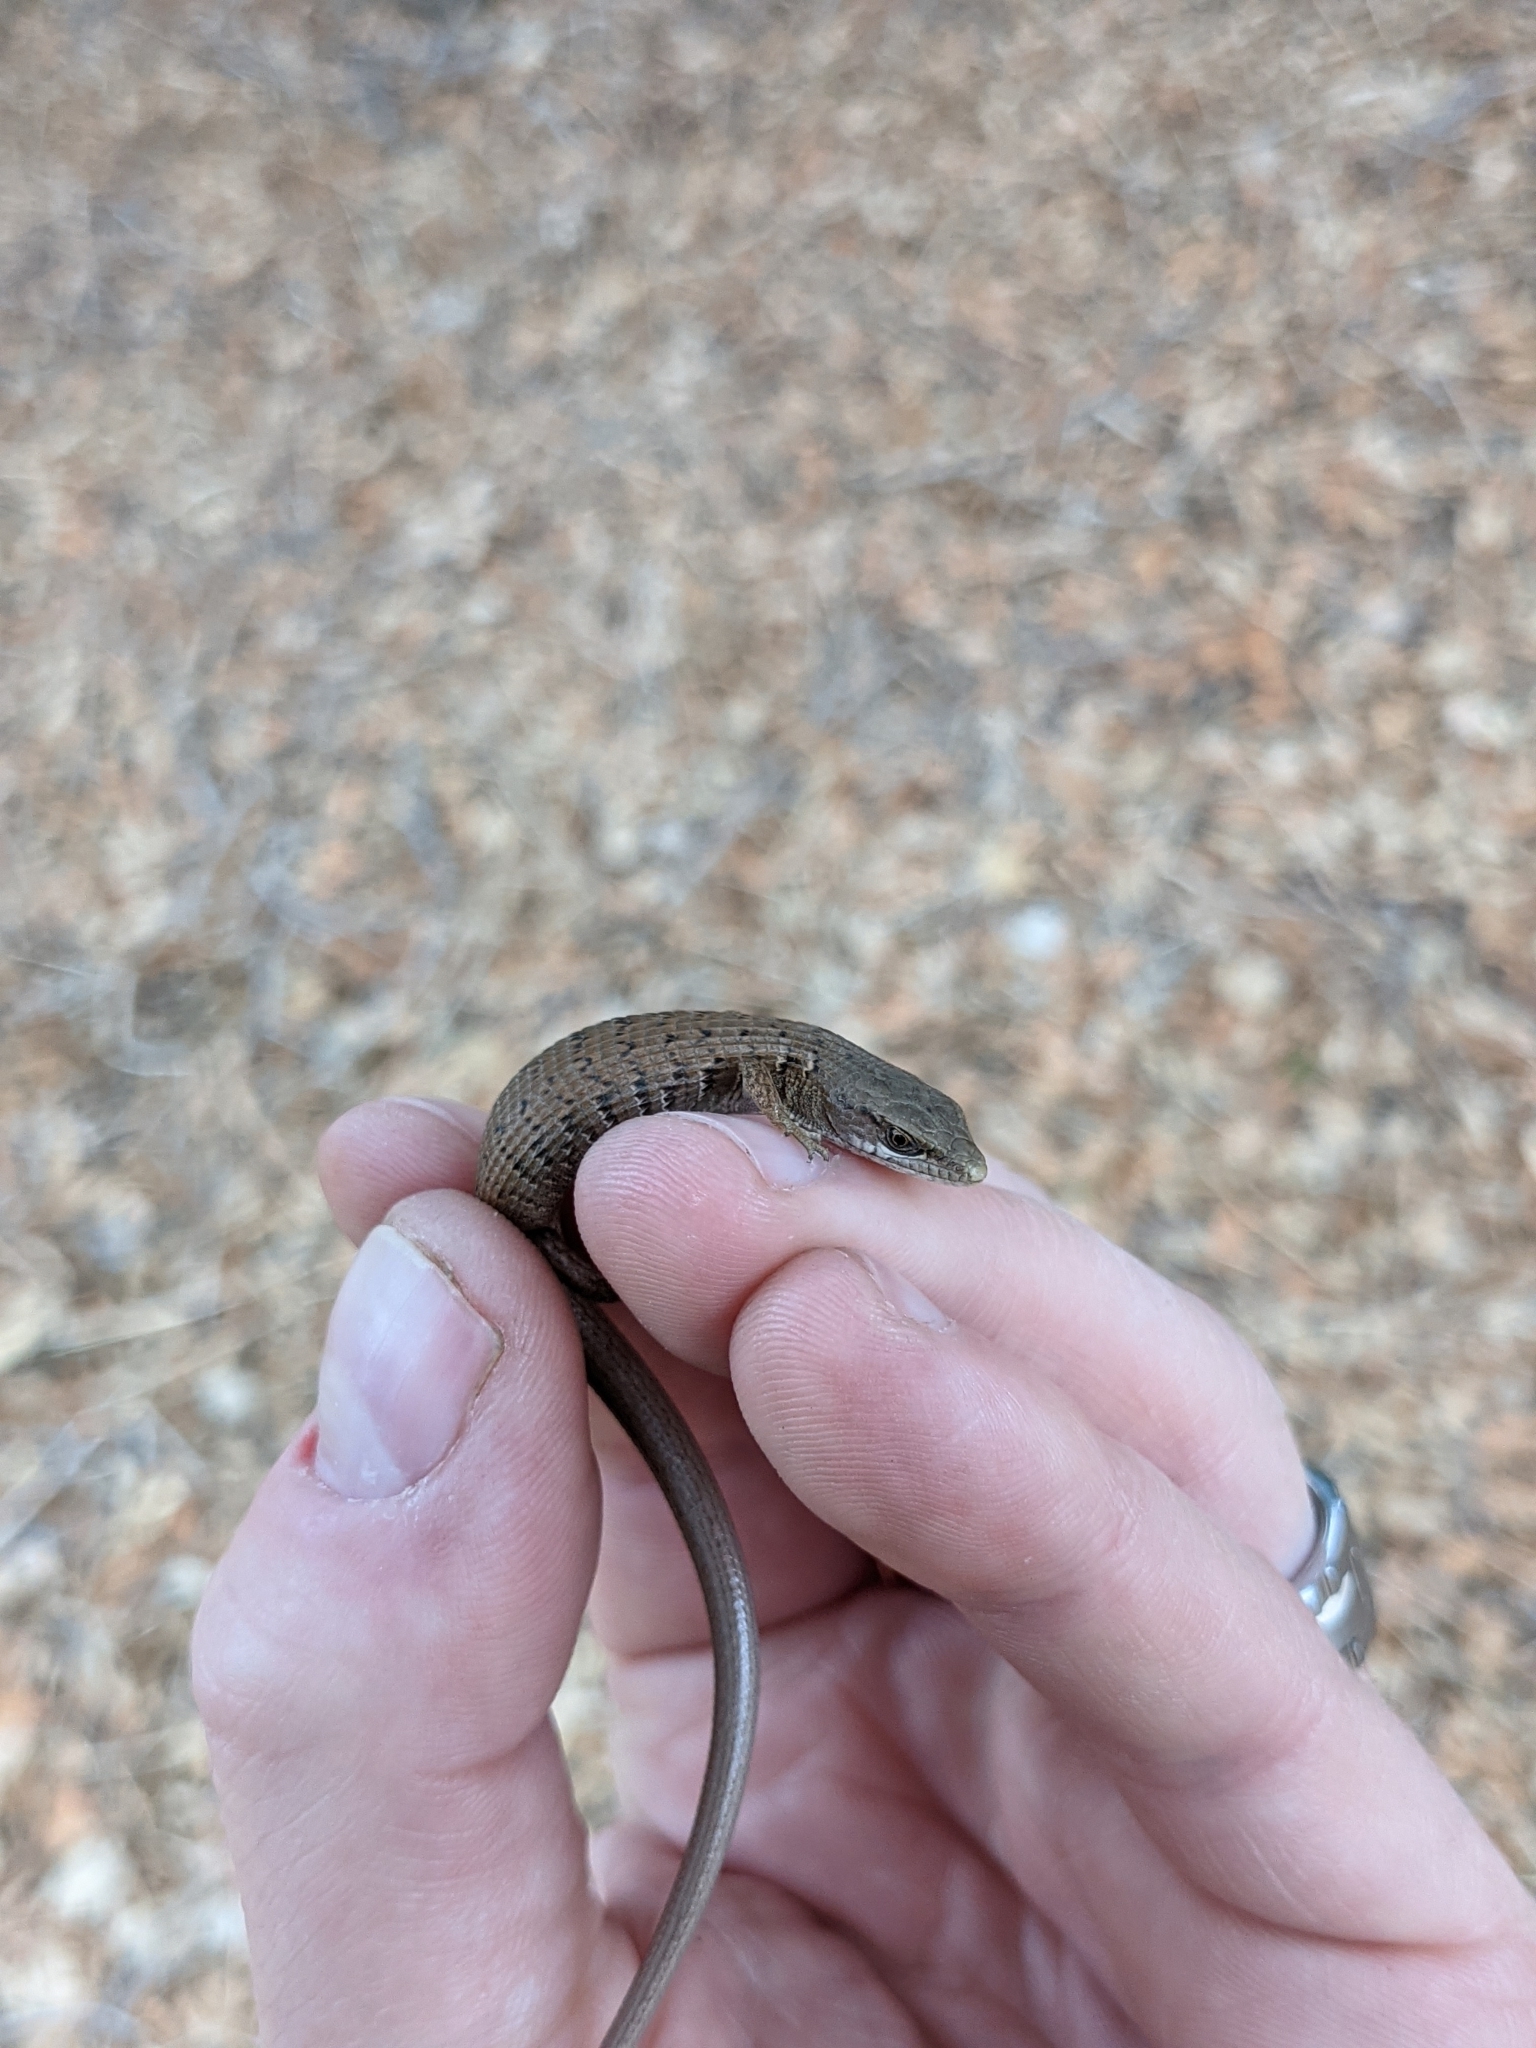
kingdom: Animalia
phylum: Chordata
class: Squamata
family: Anguidae
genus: Elgaria
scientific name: Elgaria multicarinata
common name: Southern alligator lizard
